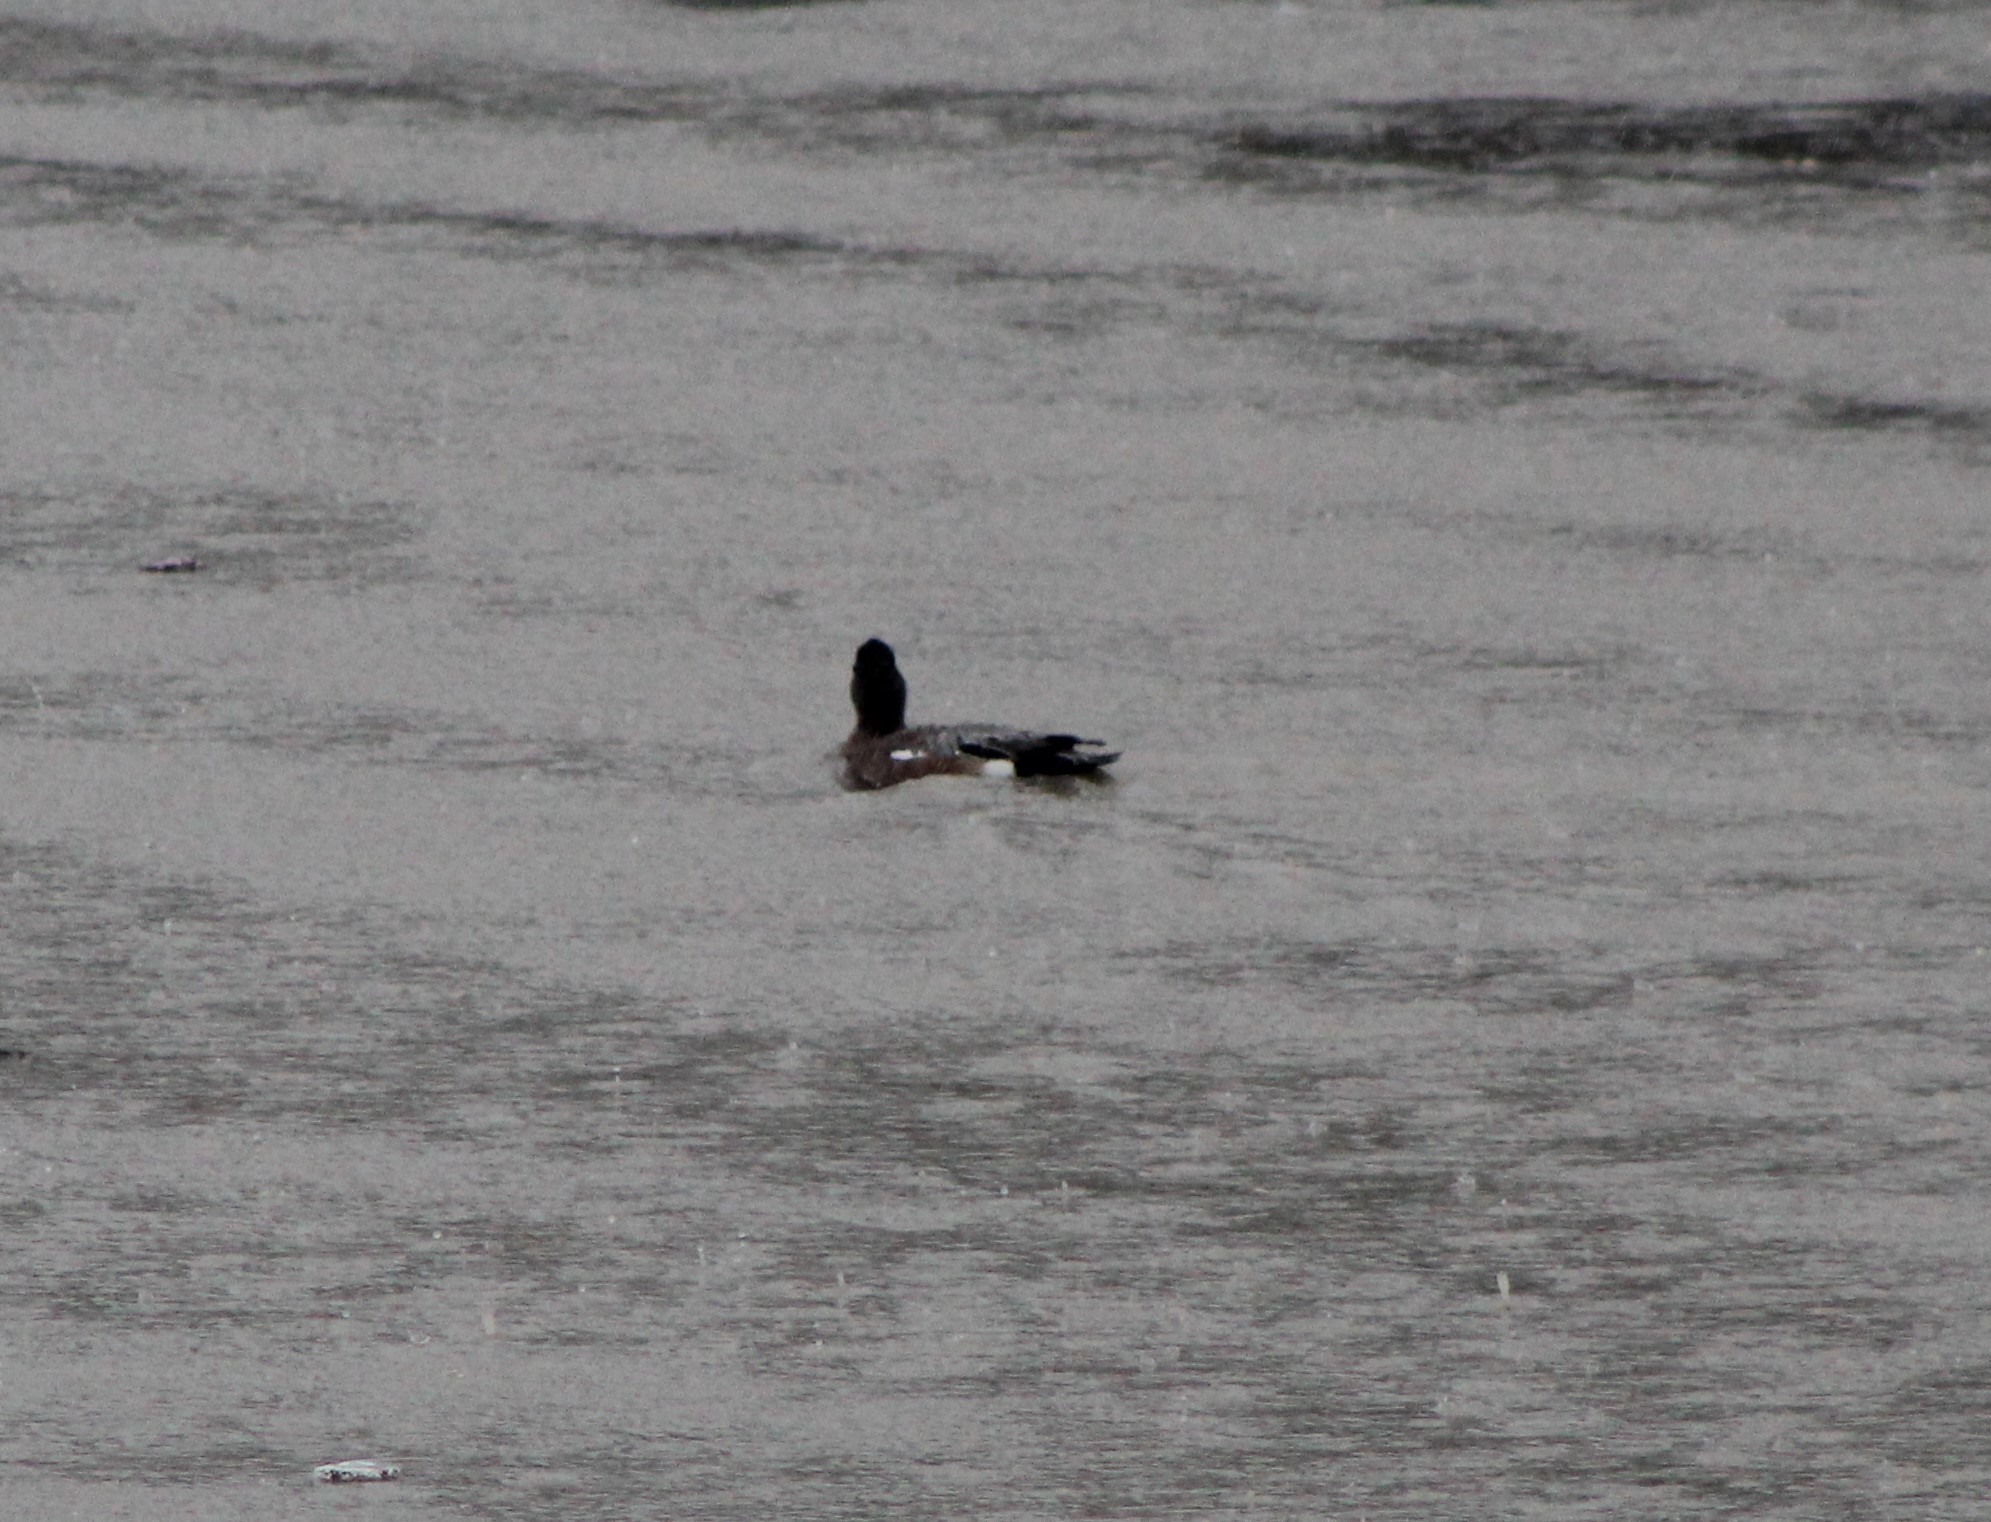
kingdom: Animalia
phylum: Chordata
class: Aves
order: Anseriformes
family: Anatidae
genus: Mareca
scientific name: Mareca americana
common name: American wigeon
